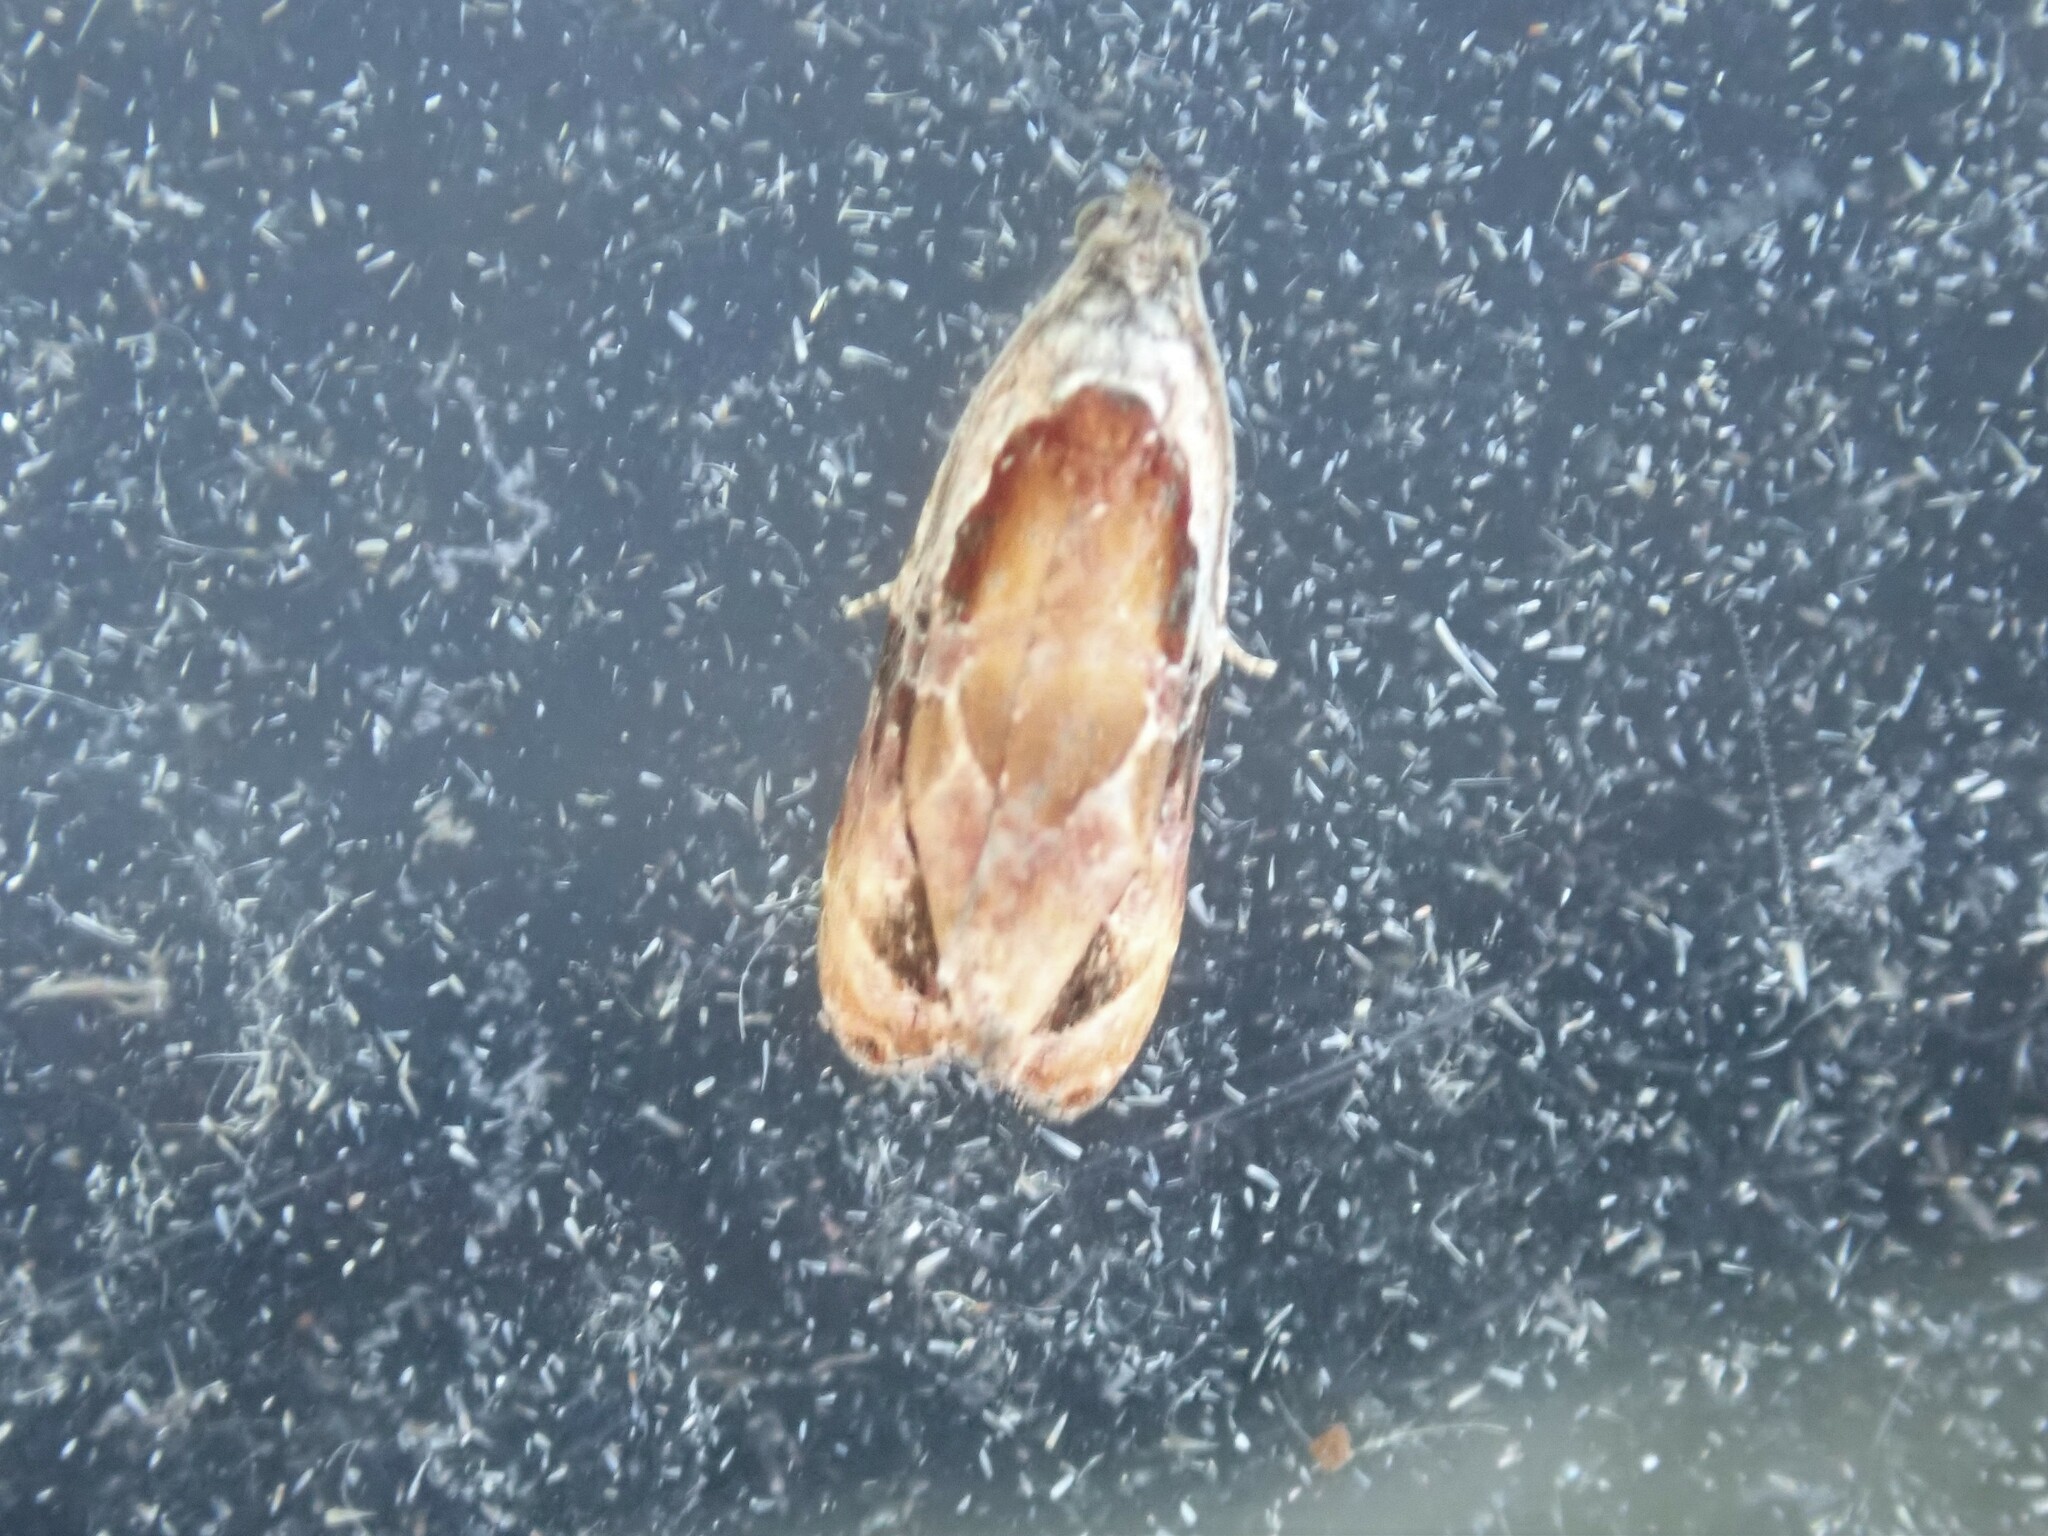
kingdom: Animalia
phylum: Arthropoda
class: Insecta
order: Lepidoptera
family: Tortricidae
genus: Zomaria
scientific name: Zomaria interruptolineana
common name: Broken-lined zomaria moth
